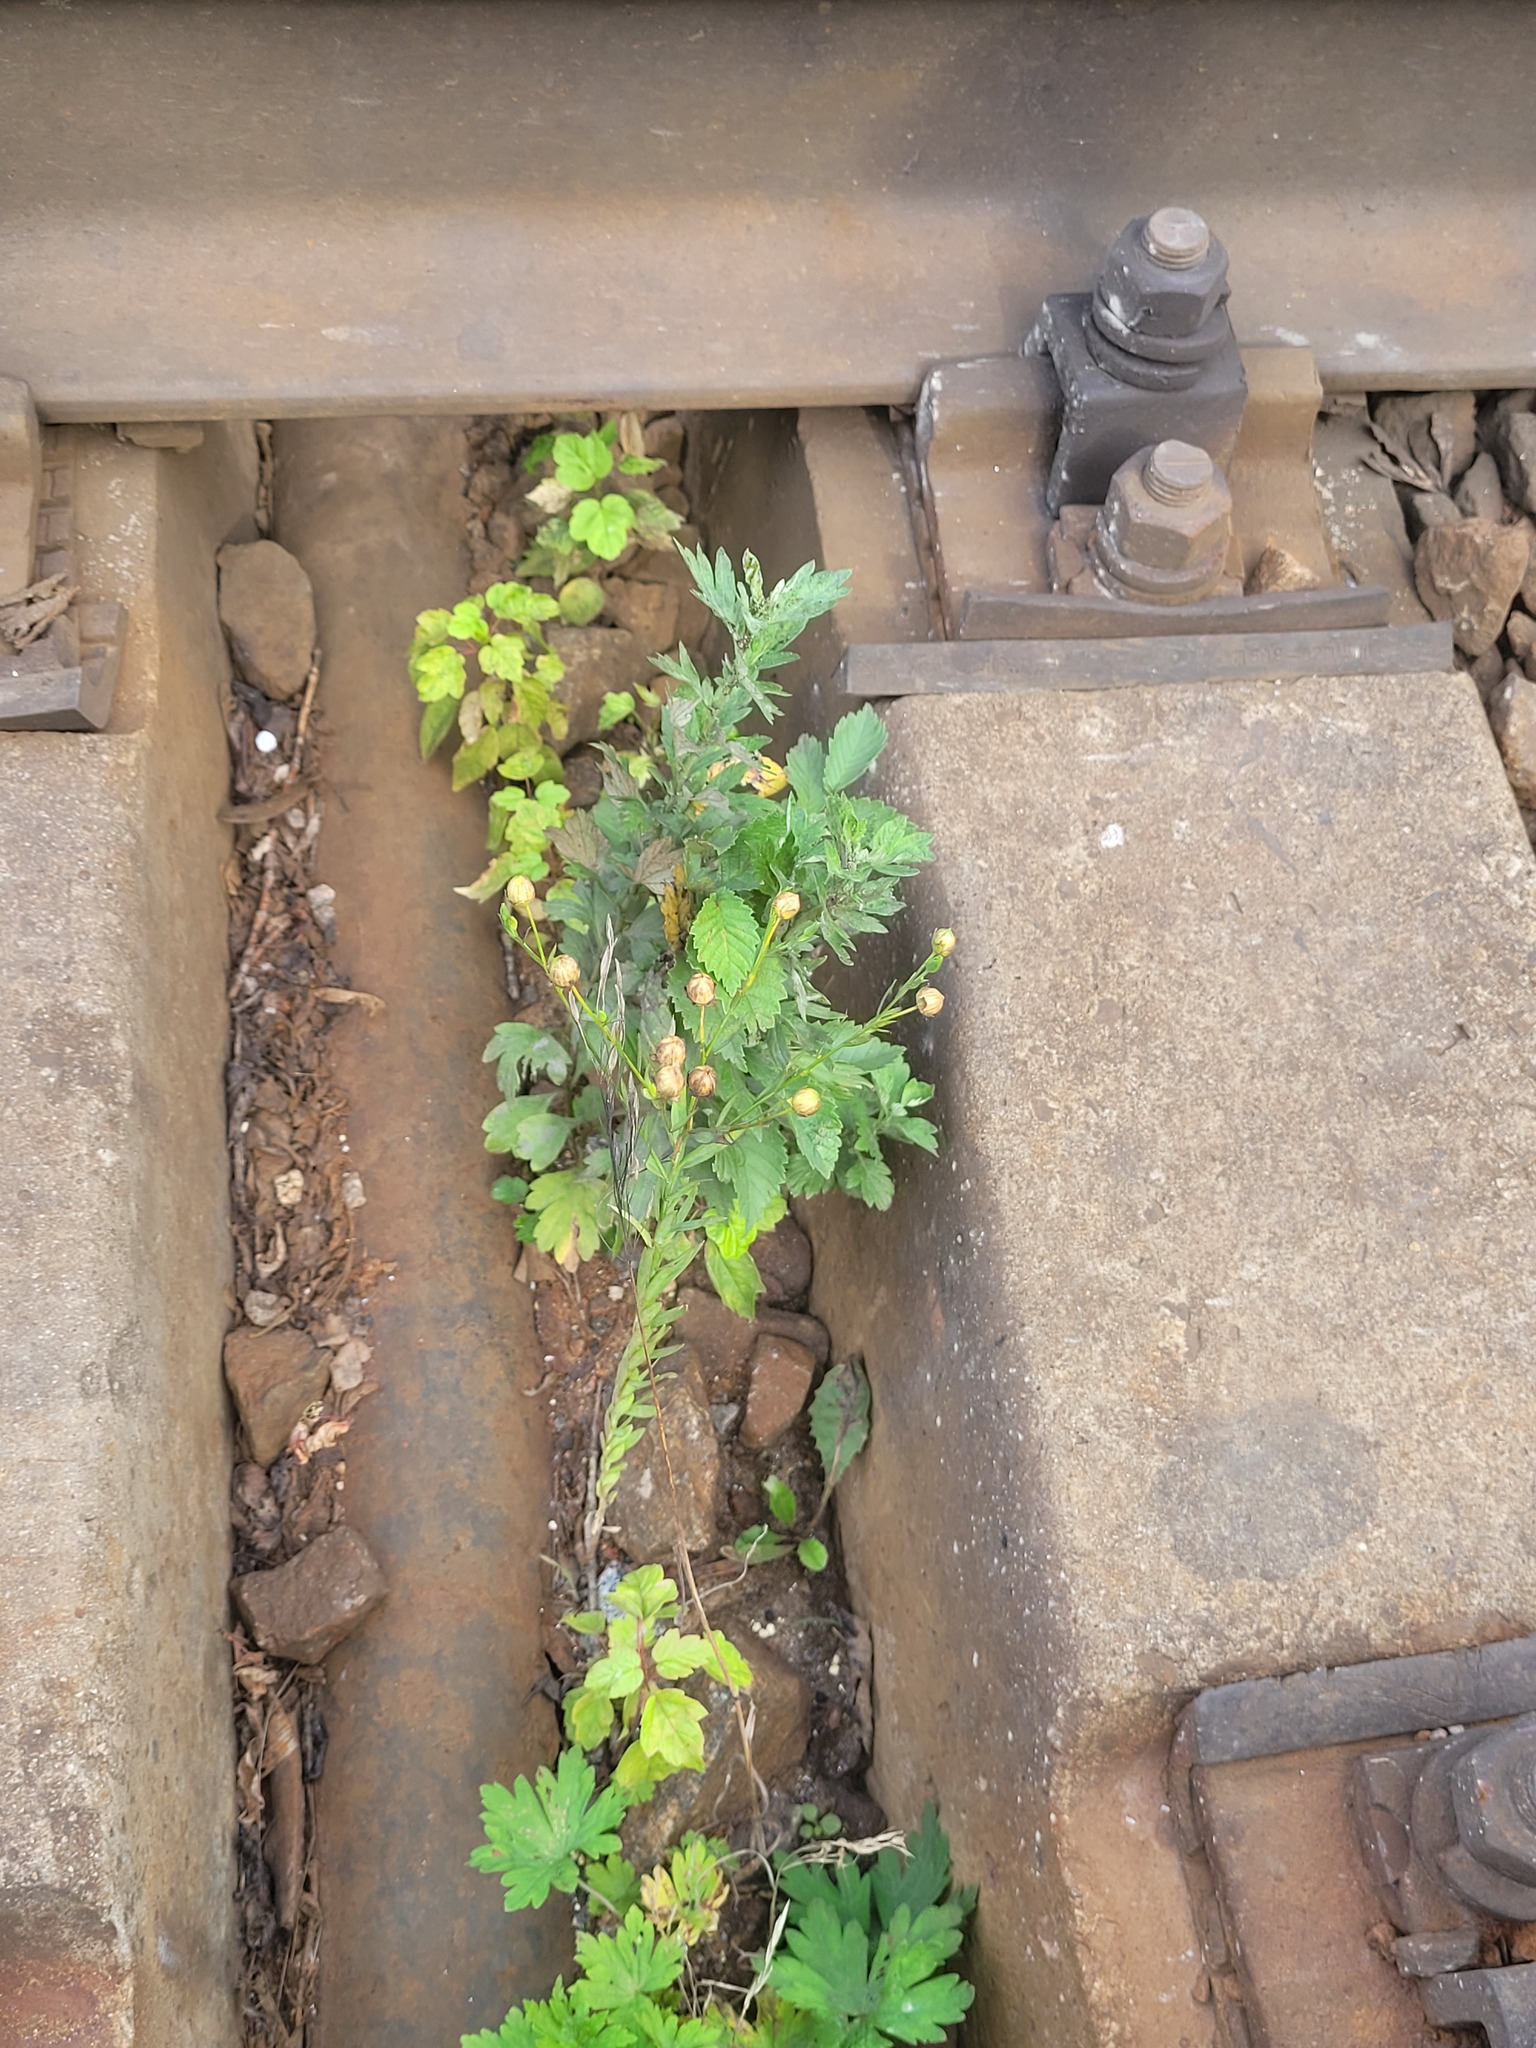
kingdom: Plantae
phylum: Tracheophyta
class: Magnoliopsida
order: Malpighiales
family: Linaceae
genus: Linum
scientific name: Linum usitatissimum
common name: Flax
